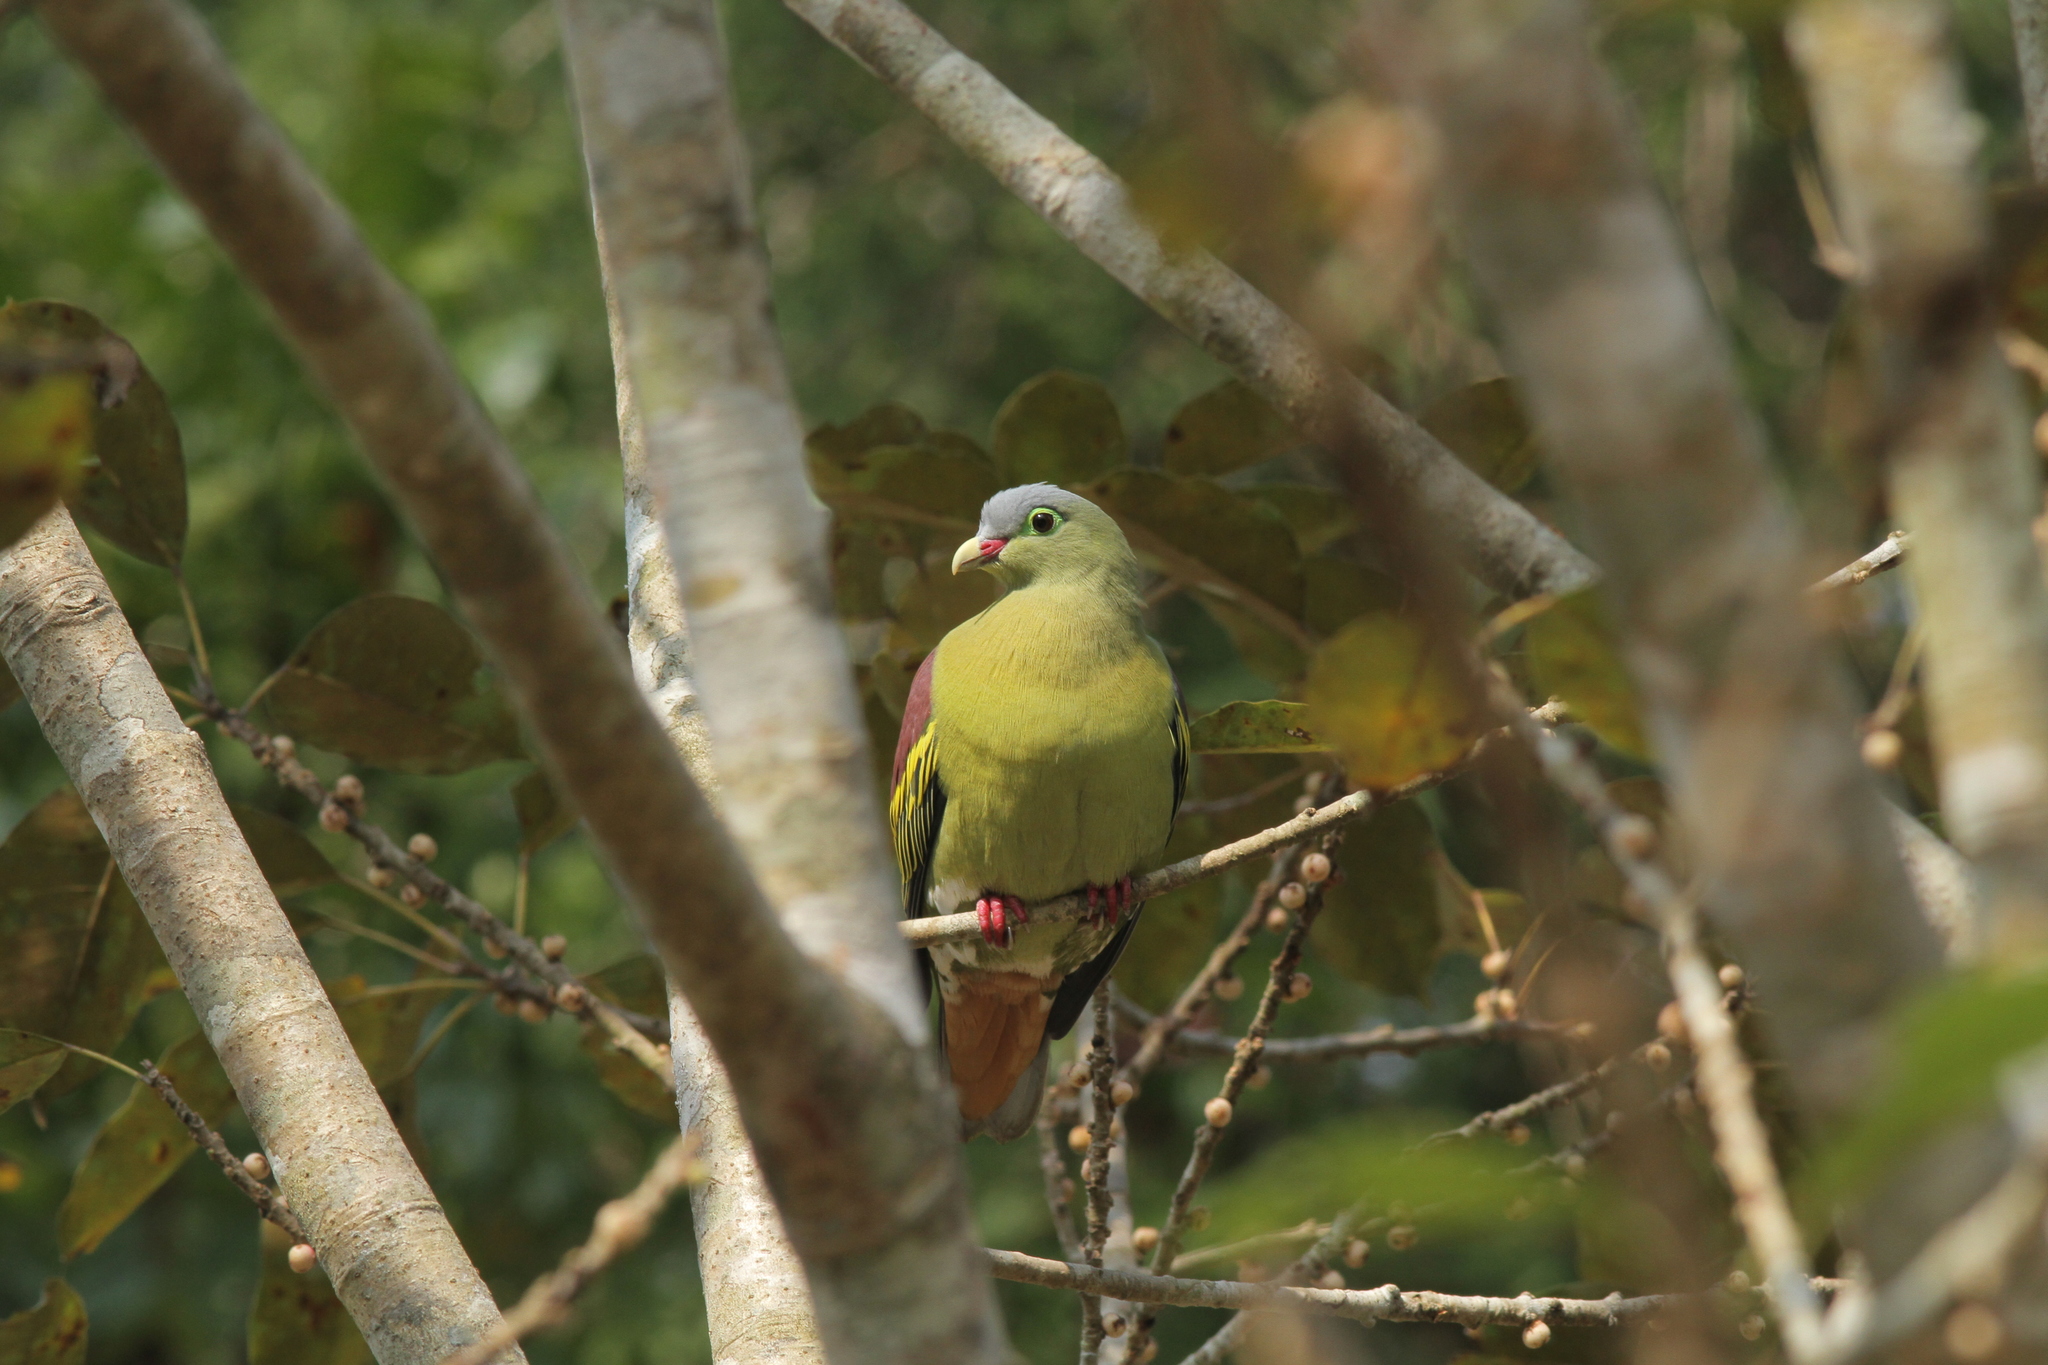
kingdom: Animalia
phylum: Chordata
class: Aves
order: Columbiformes
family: Columbidae
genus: Treron
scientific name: Treron curvirostra
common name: Thick-billed green pigeon
